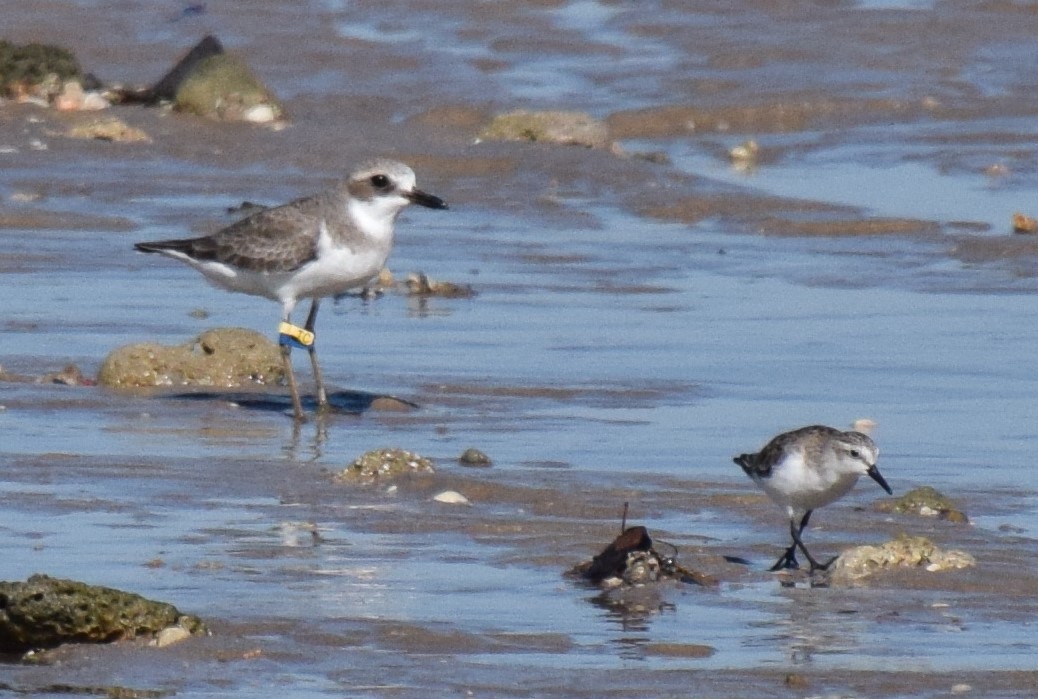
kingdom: Animalia
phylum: Chordata
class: Aves
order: Charadriiformes
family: Charadriidae
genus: Charadrius
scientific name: Charadrius leschenaultii
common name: Greater sand plover
